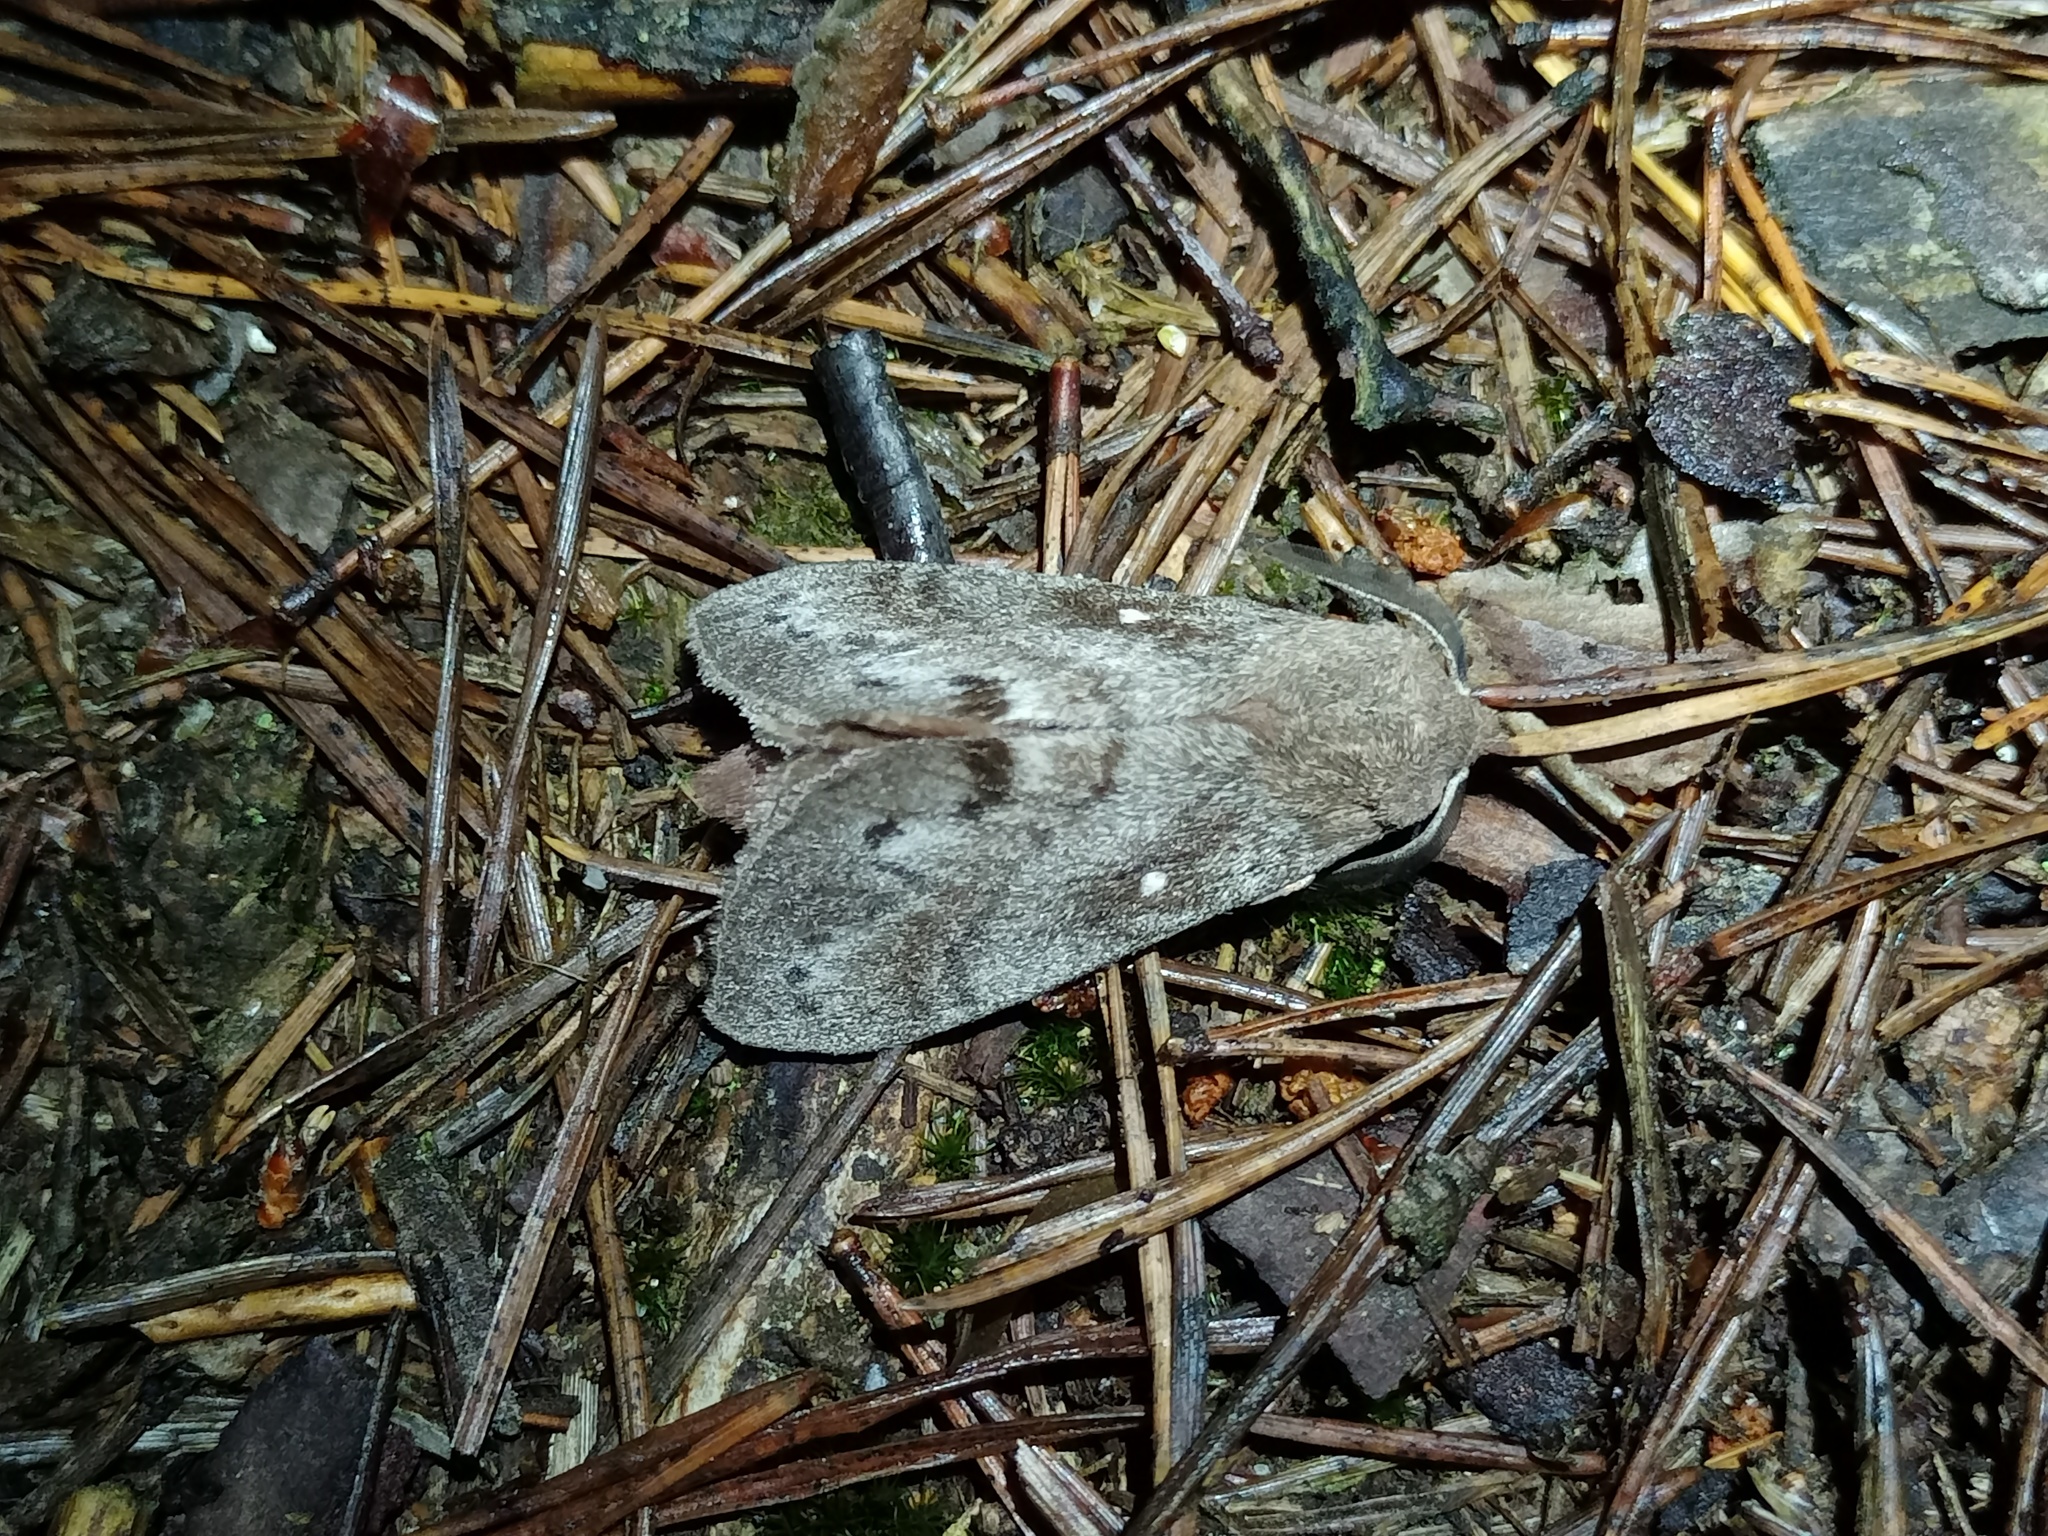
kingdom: Animalia
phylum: Arthropoda
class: Insecta
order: Lepidoptera
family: Lasiocampidae
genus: Dendrolimus
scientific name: Dendrolimus pini
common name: Pine-tree lappet
